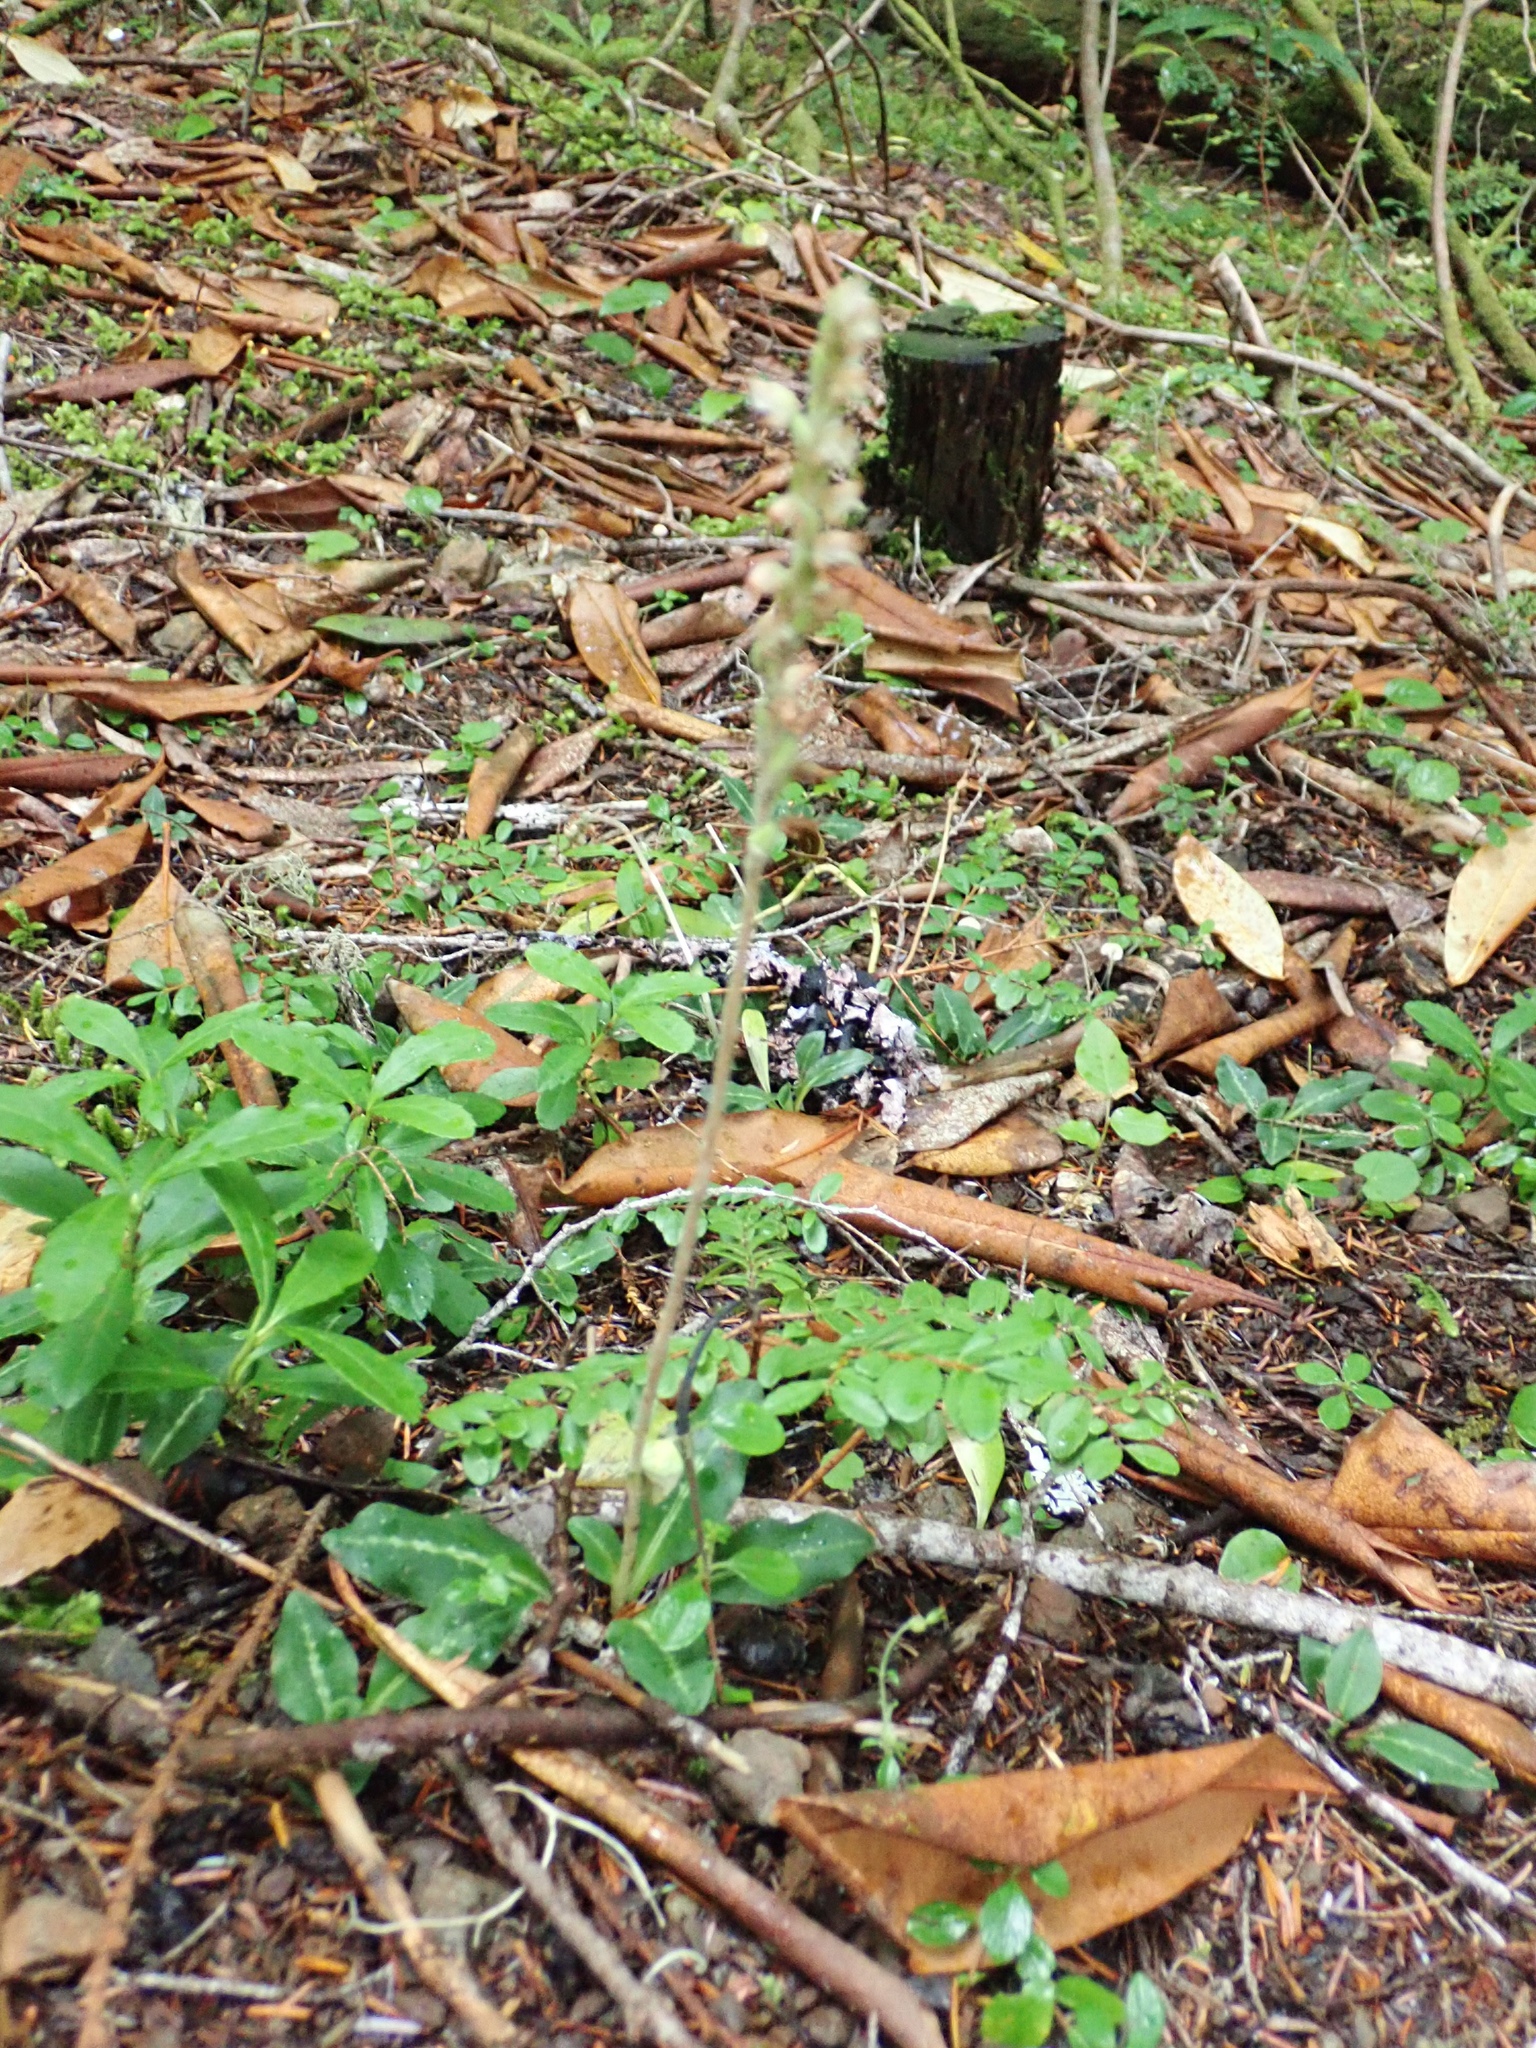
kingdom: Plantae
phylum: Tracheophyta
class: Liliopsida
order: Asparagales
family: Orchidaceae
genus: Goodyera
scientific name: Goodyera oblongifolia
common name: Giant rattlesnake-plantain
